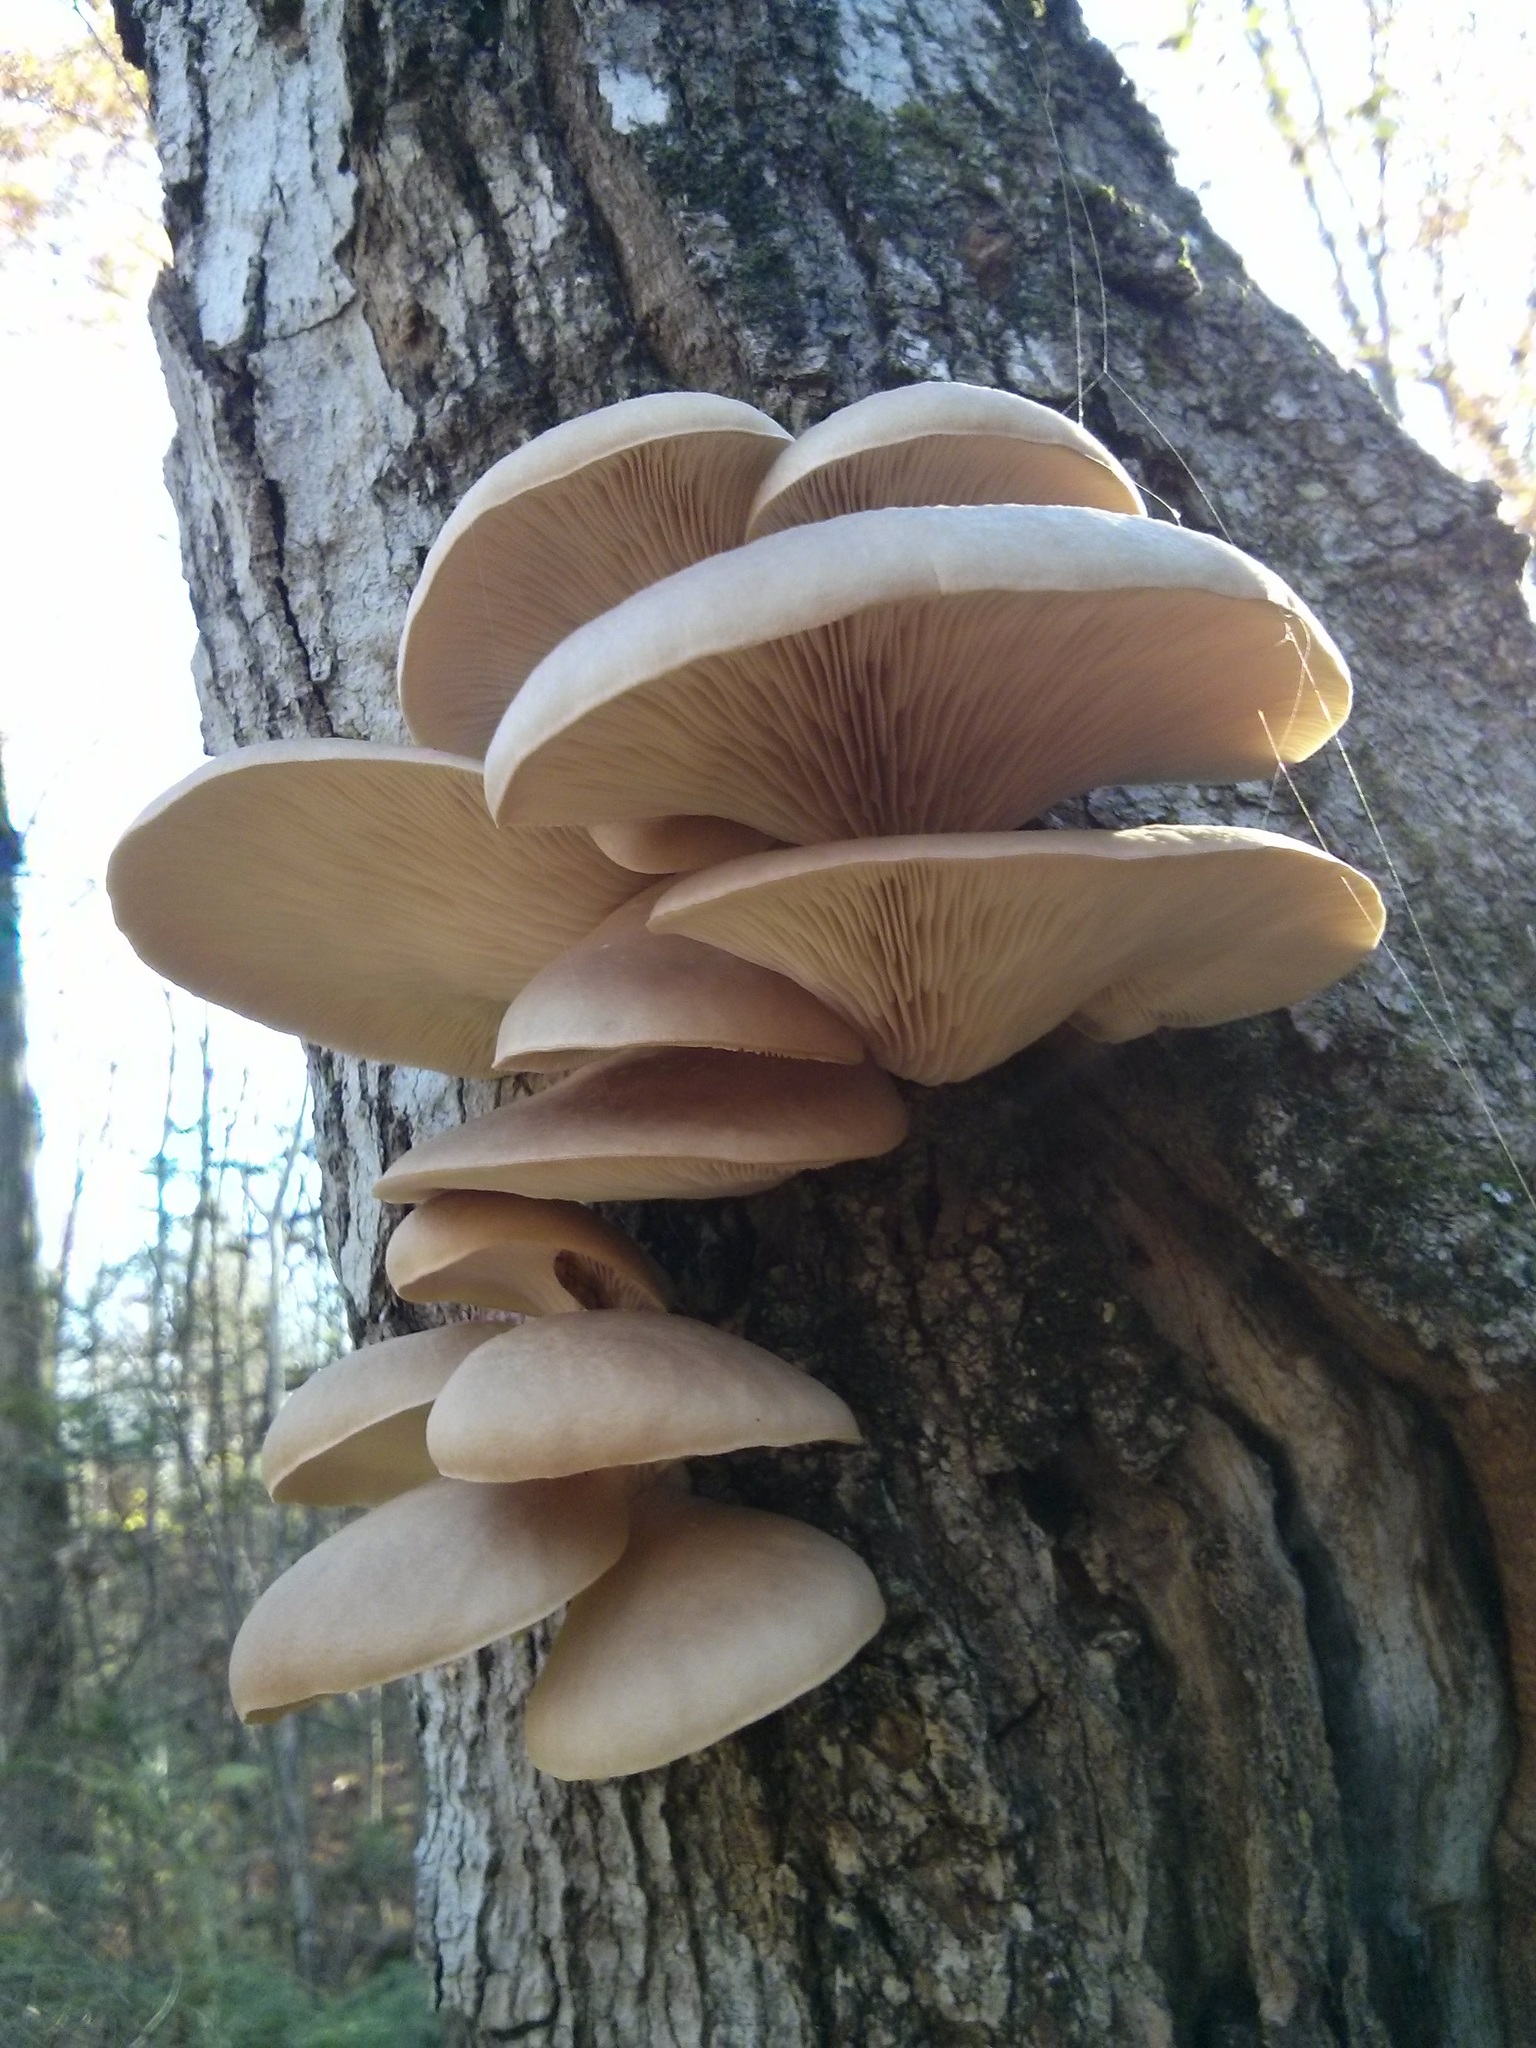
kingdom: Fungi
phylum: Basidiomycota
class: Agaricomycetes
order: Agaricales
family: Pleurotaceae
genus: Pleurotus
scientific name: Pleurotus ostreatus
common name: Oyster mushroom
